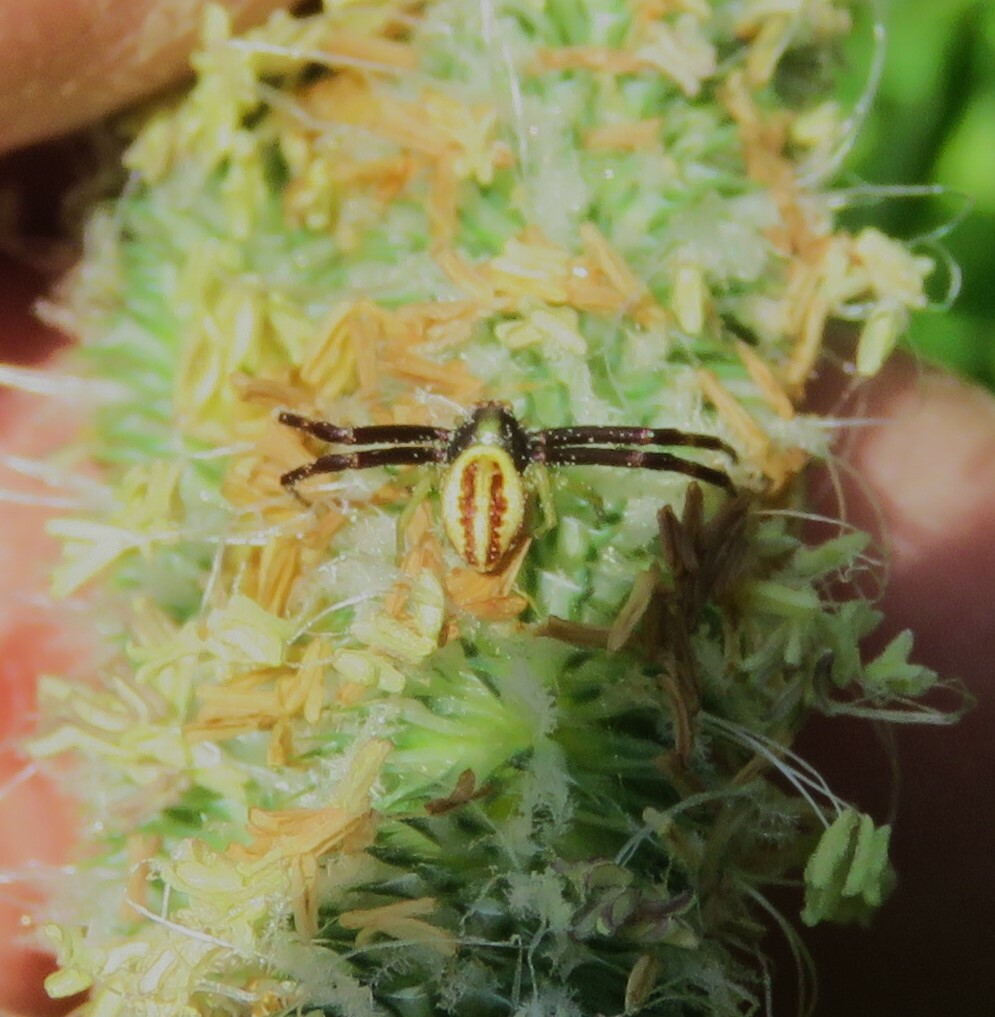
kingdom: Animalia
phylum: Arthropoda
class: Arachnida
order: Araneae
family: Thomisidae
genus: Misumena
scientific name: Misumena vatia
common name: Goldenrod crab spider
